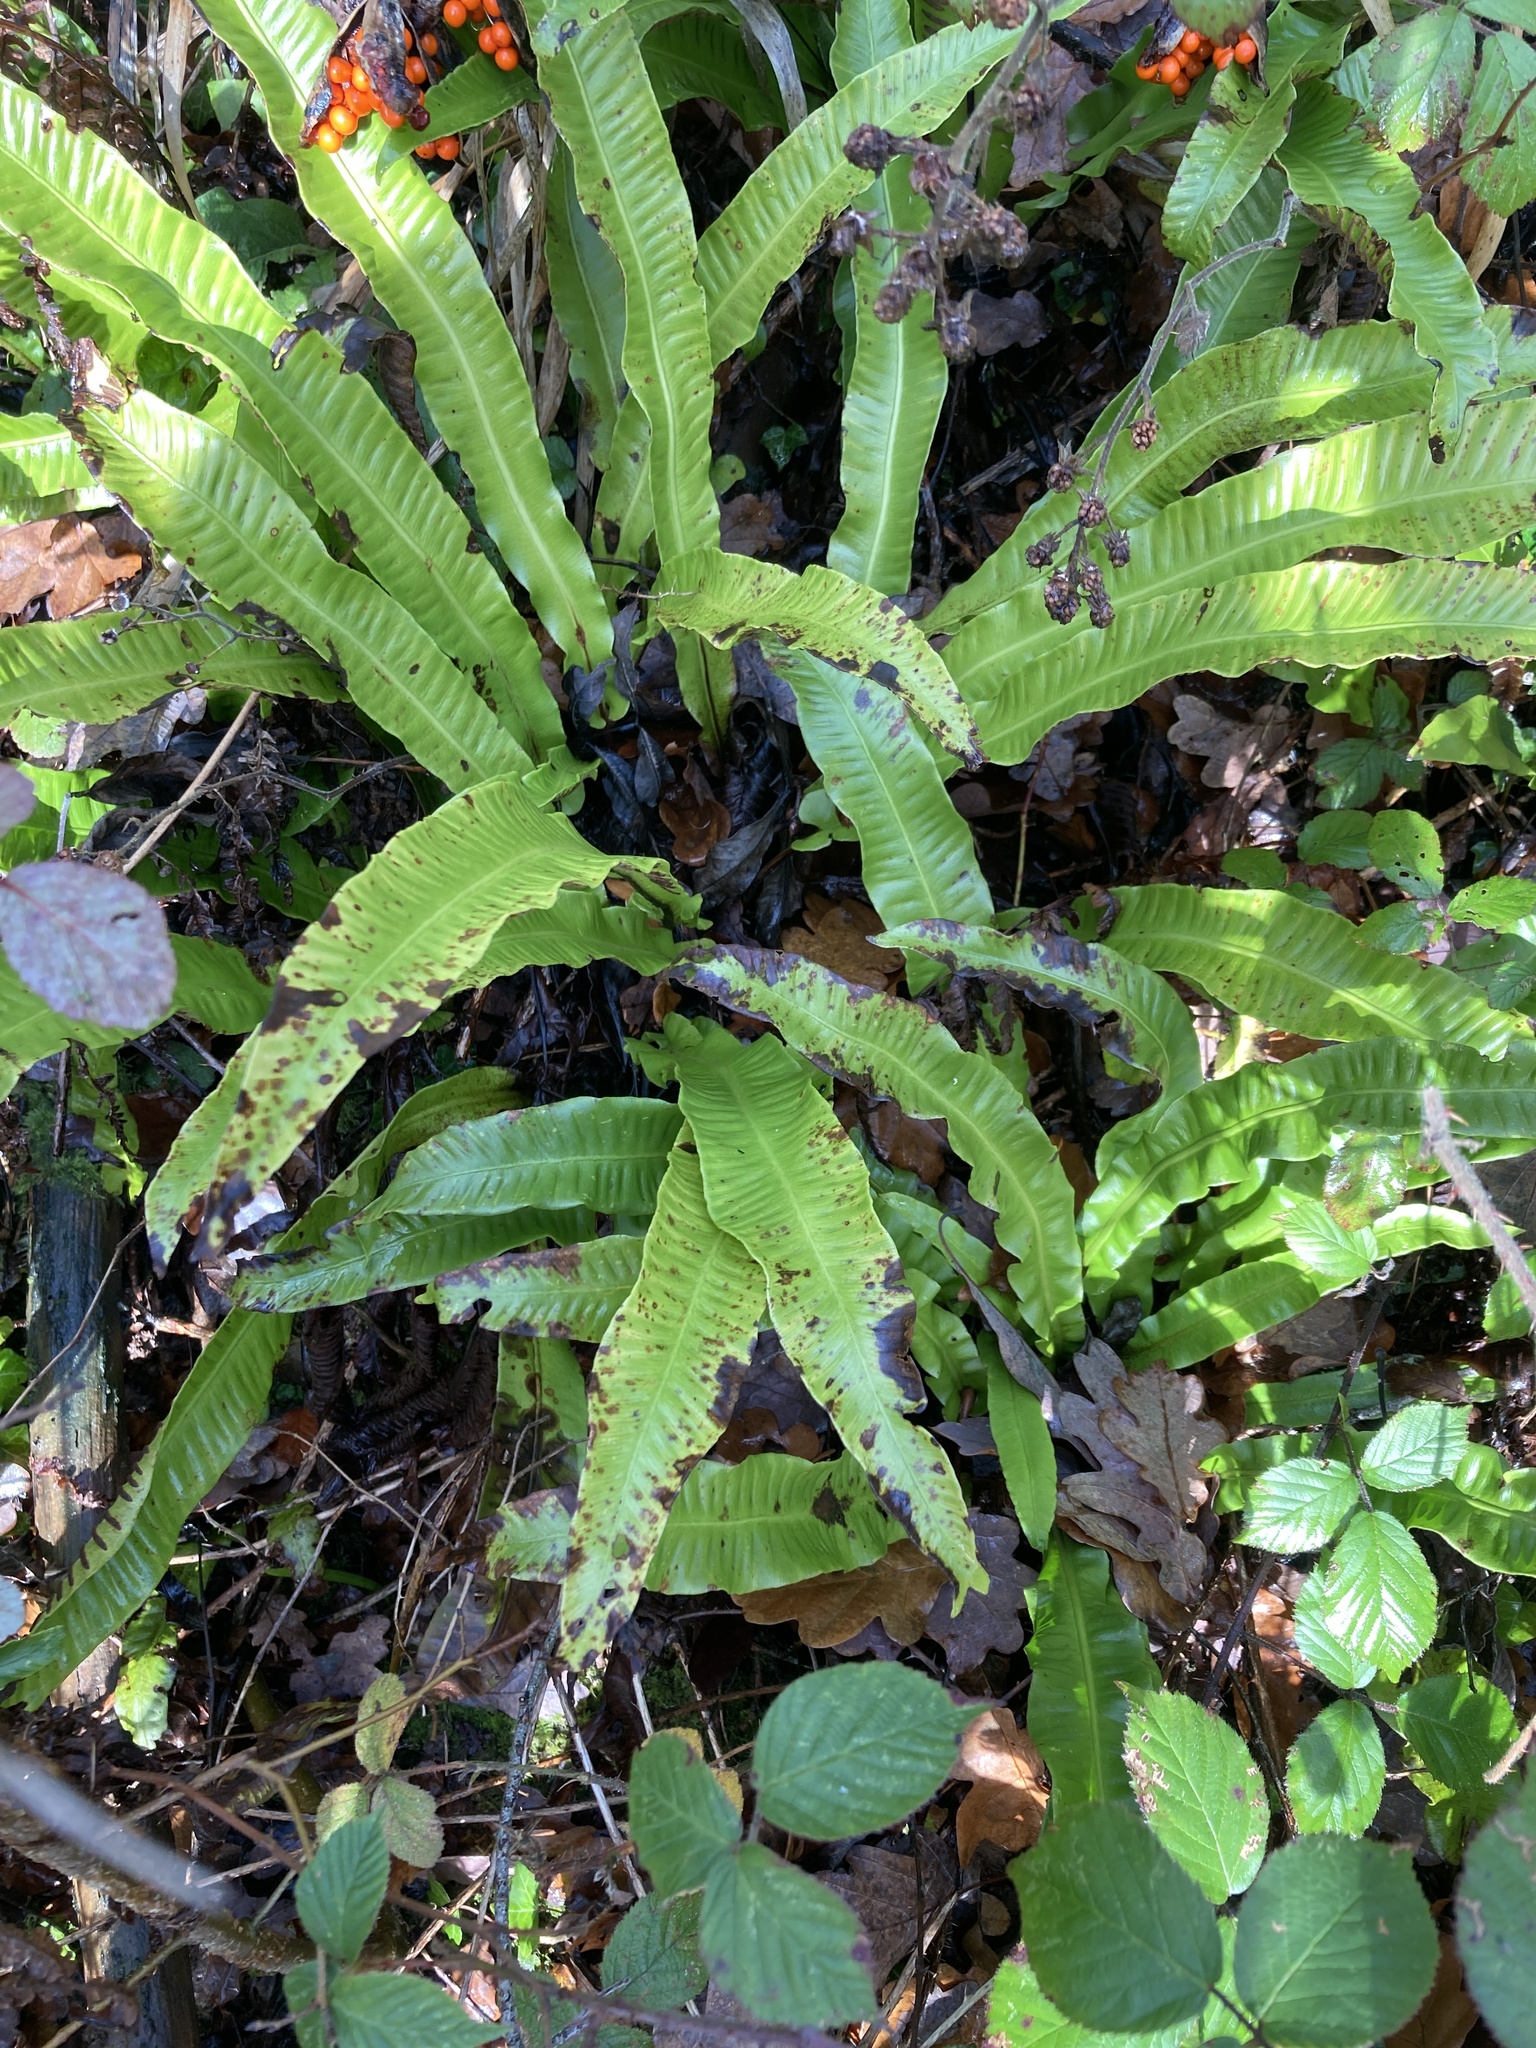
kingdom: Plantae
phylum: Tracheophyta
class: Polypodiopsida
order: Polypodiales
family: Aspleniaceae
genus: Asplenium
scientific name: Asplenium scolopendrium
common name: Hart's-tongue fern
